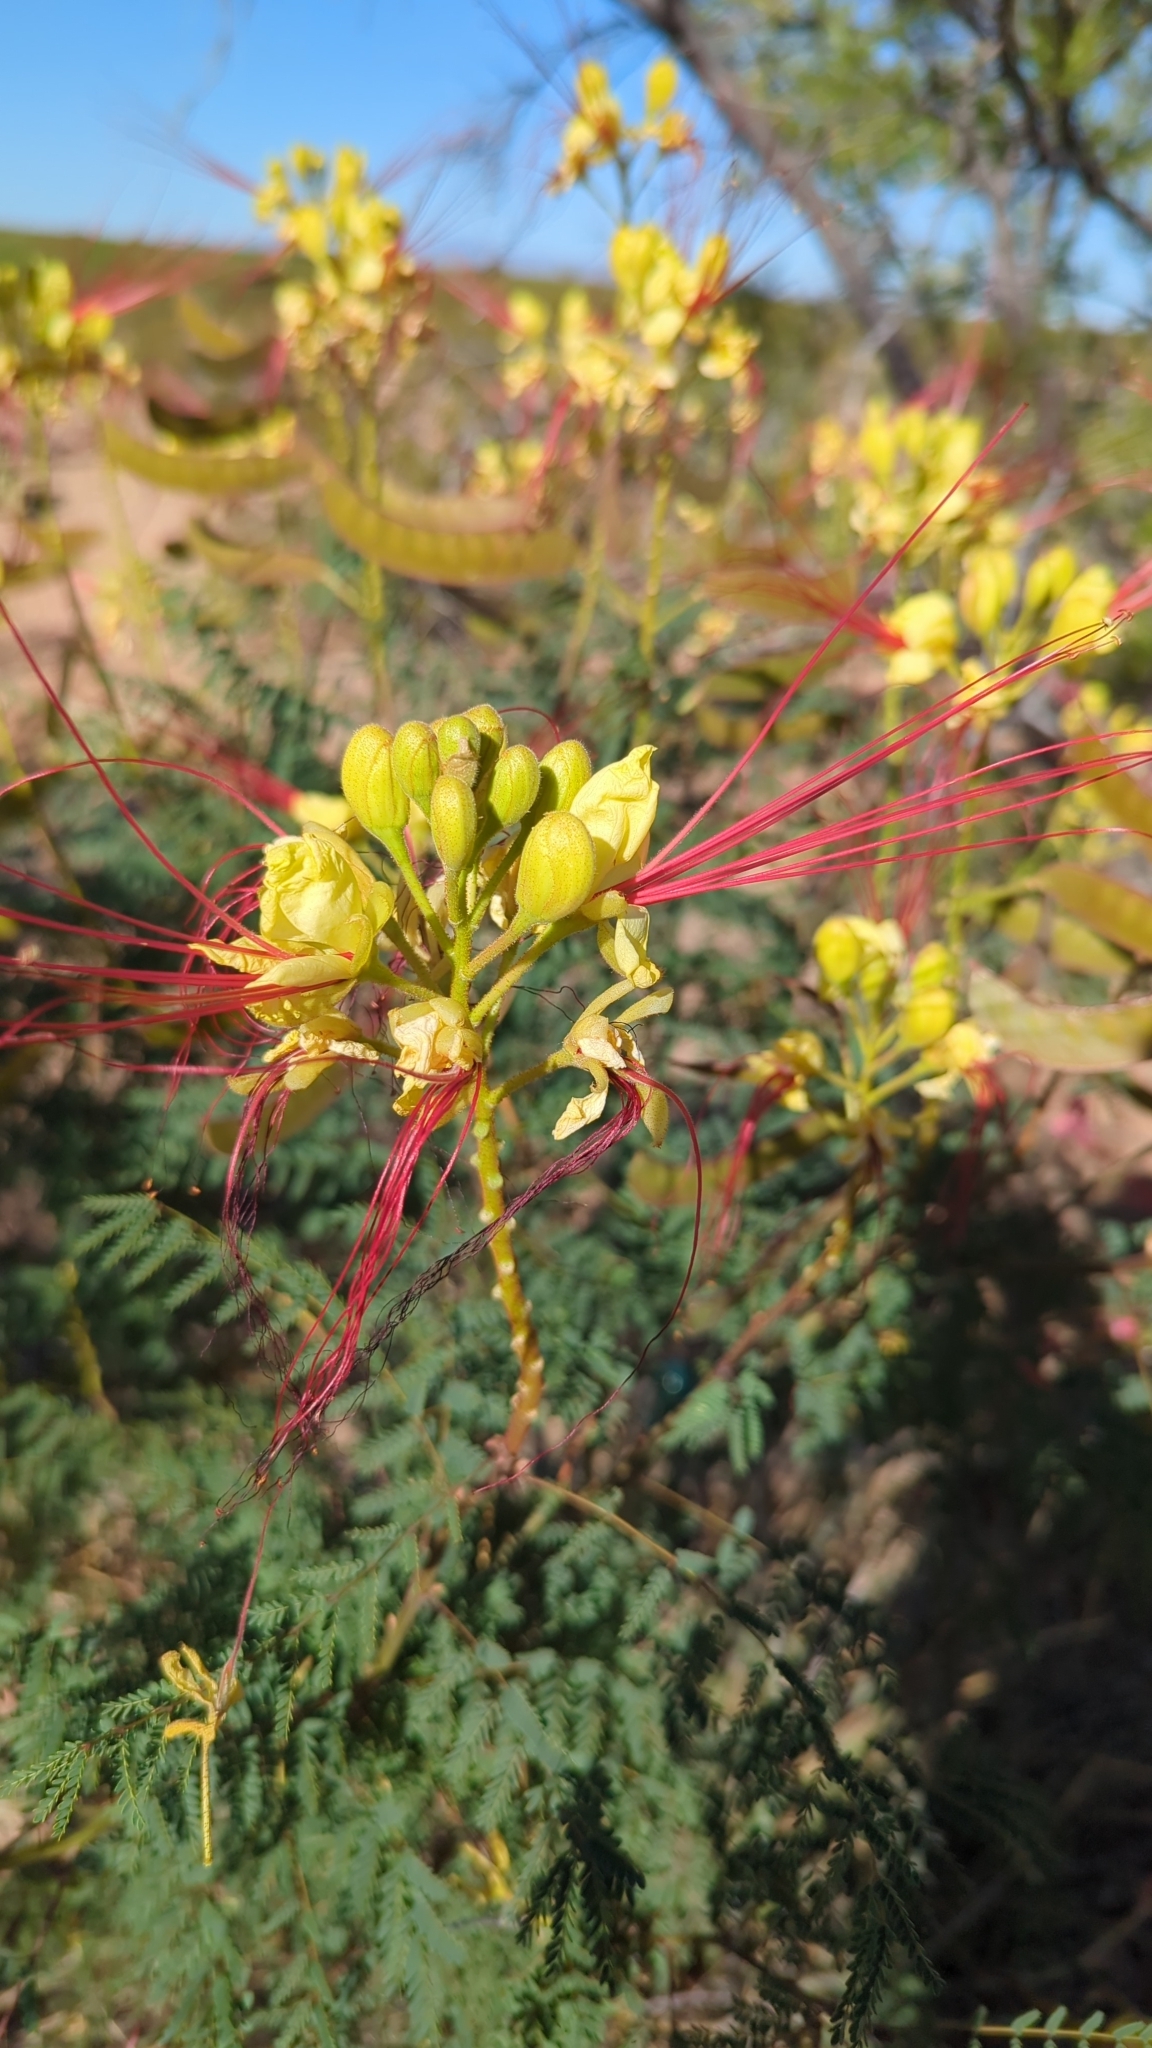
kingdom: Plantae
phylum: Tracheophyta
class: Magnoliopsida
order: Fabales
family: Fabaceae
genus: Erythrostemon
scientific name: Erythrostemon gilliesii
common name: Bird-of-paradise shrub
